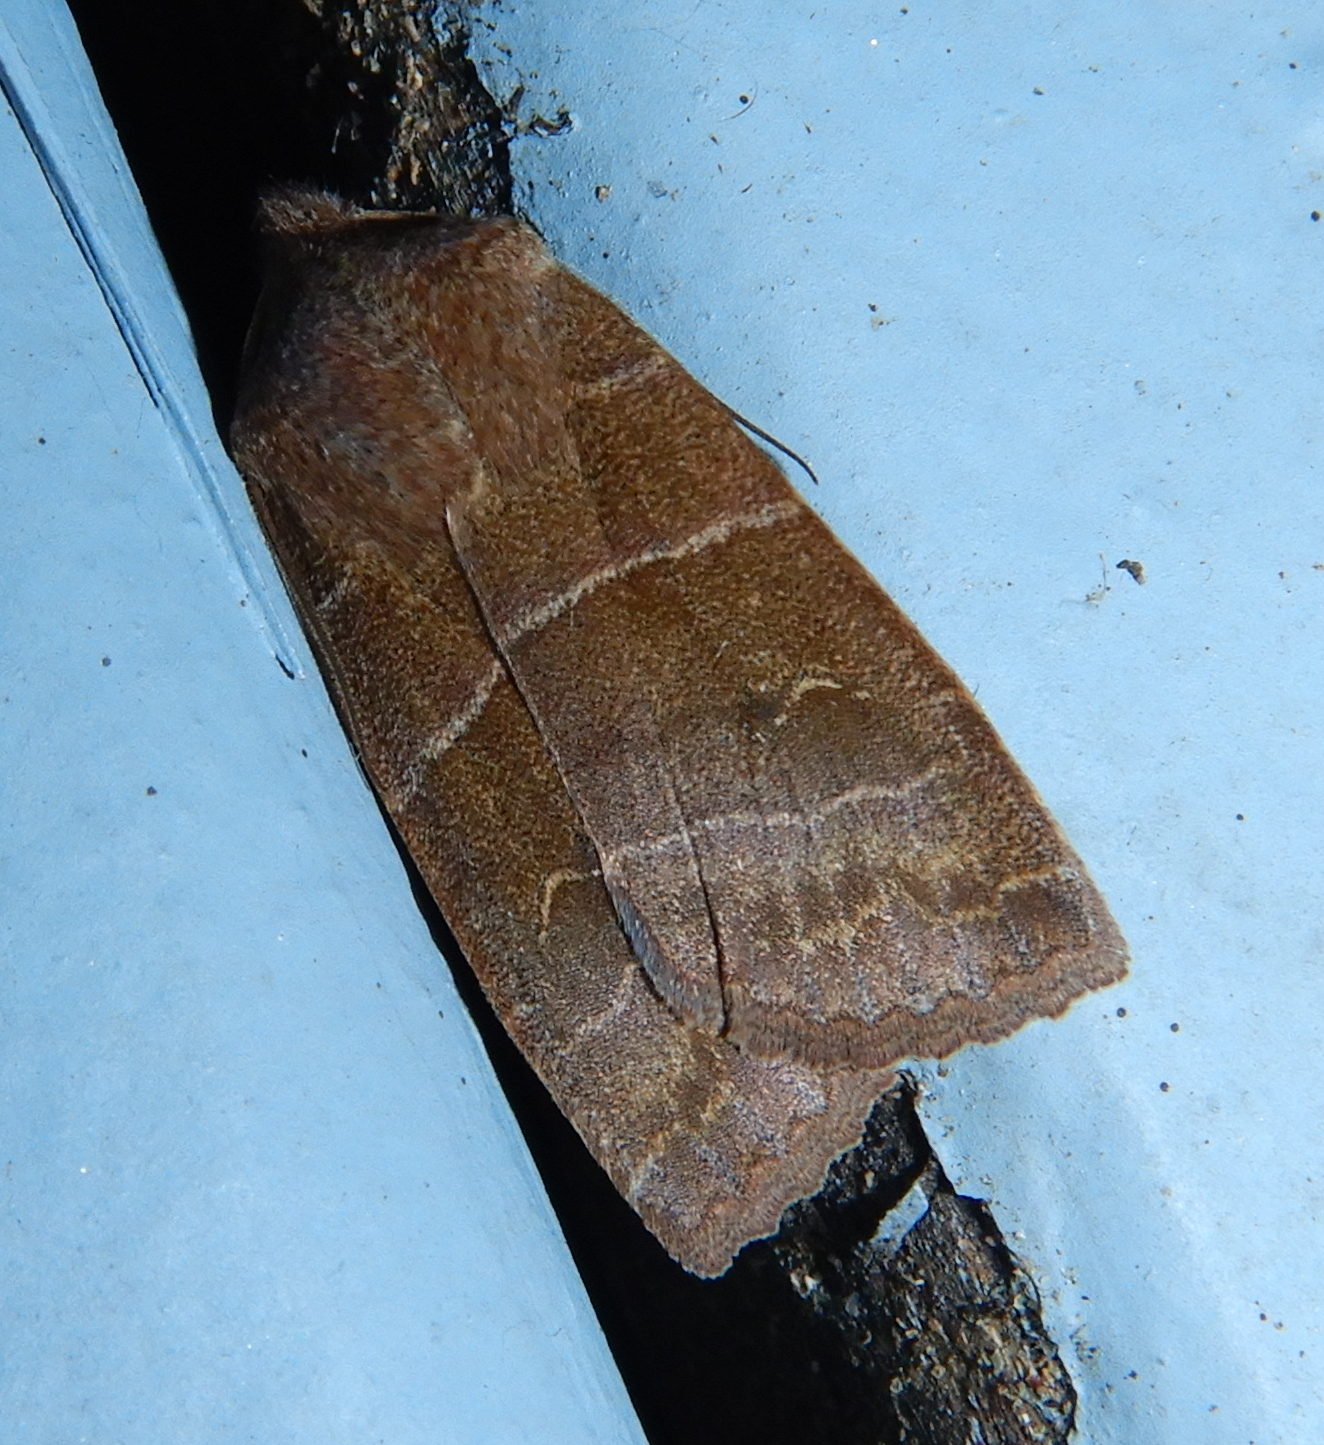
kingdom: Animalia
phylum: Arthropoda
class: Insecta
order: Lepidoptera
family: Noctuidae
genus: Eupsilia
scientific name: Eupsilia morrisoni
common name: Morrison's sallow
